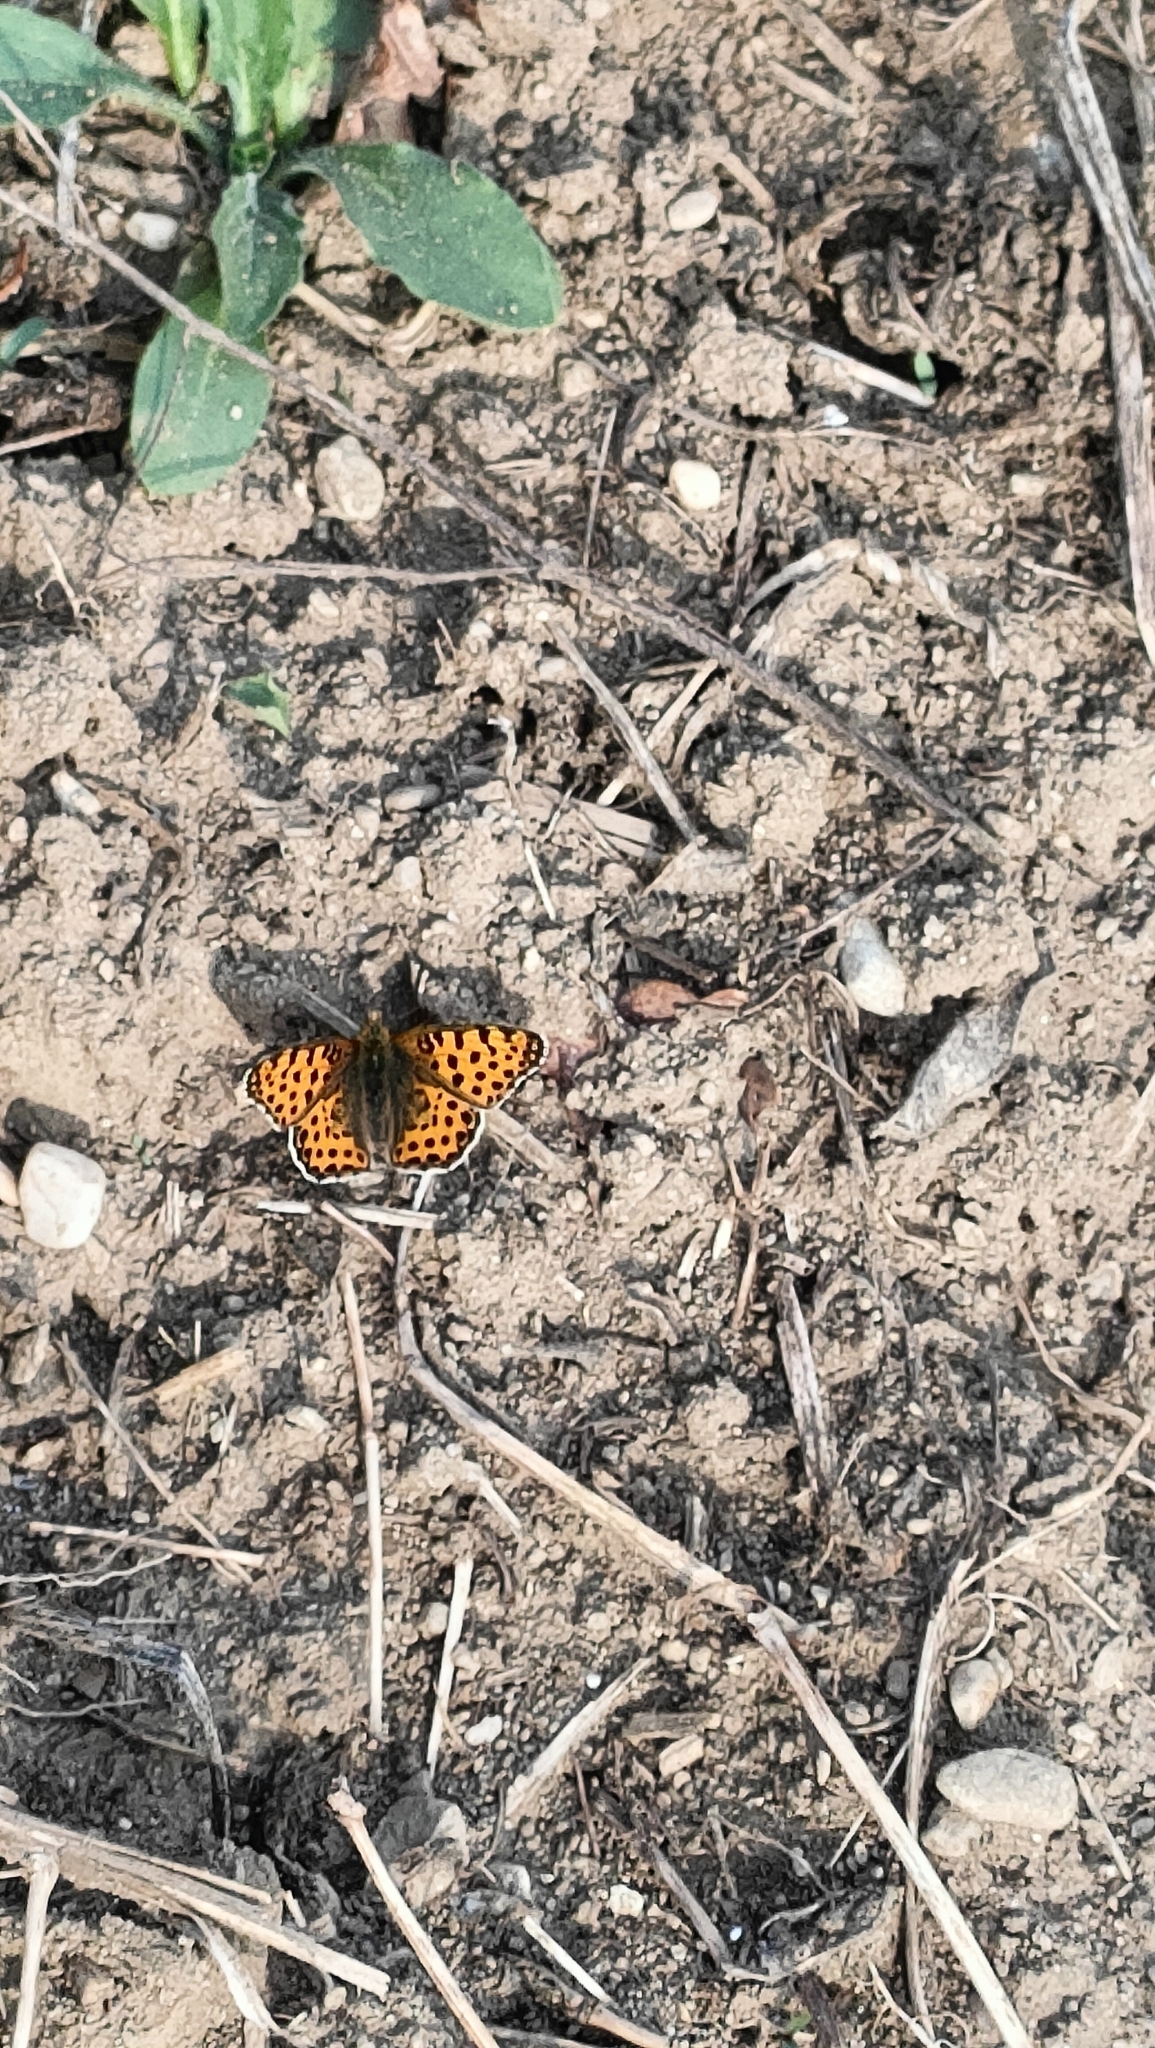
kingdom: Animalia
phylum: Arthropoda
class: Insecta
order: Lepidoptera
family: Nymphalidae
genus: Issoria
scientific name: Issoria lathonia
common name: Queen of spain fritillary
